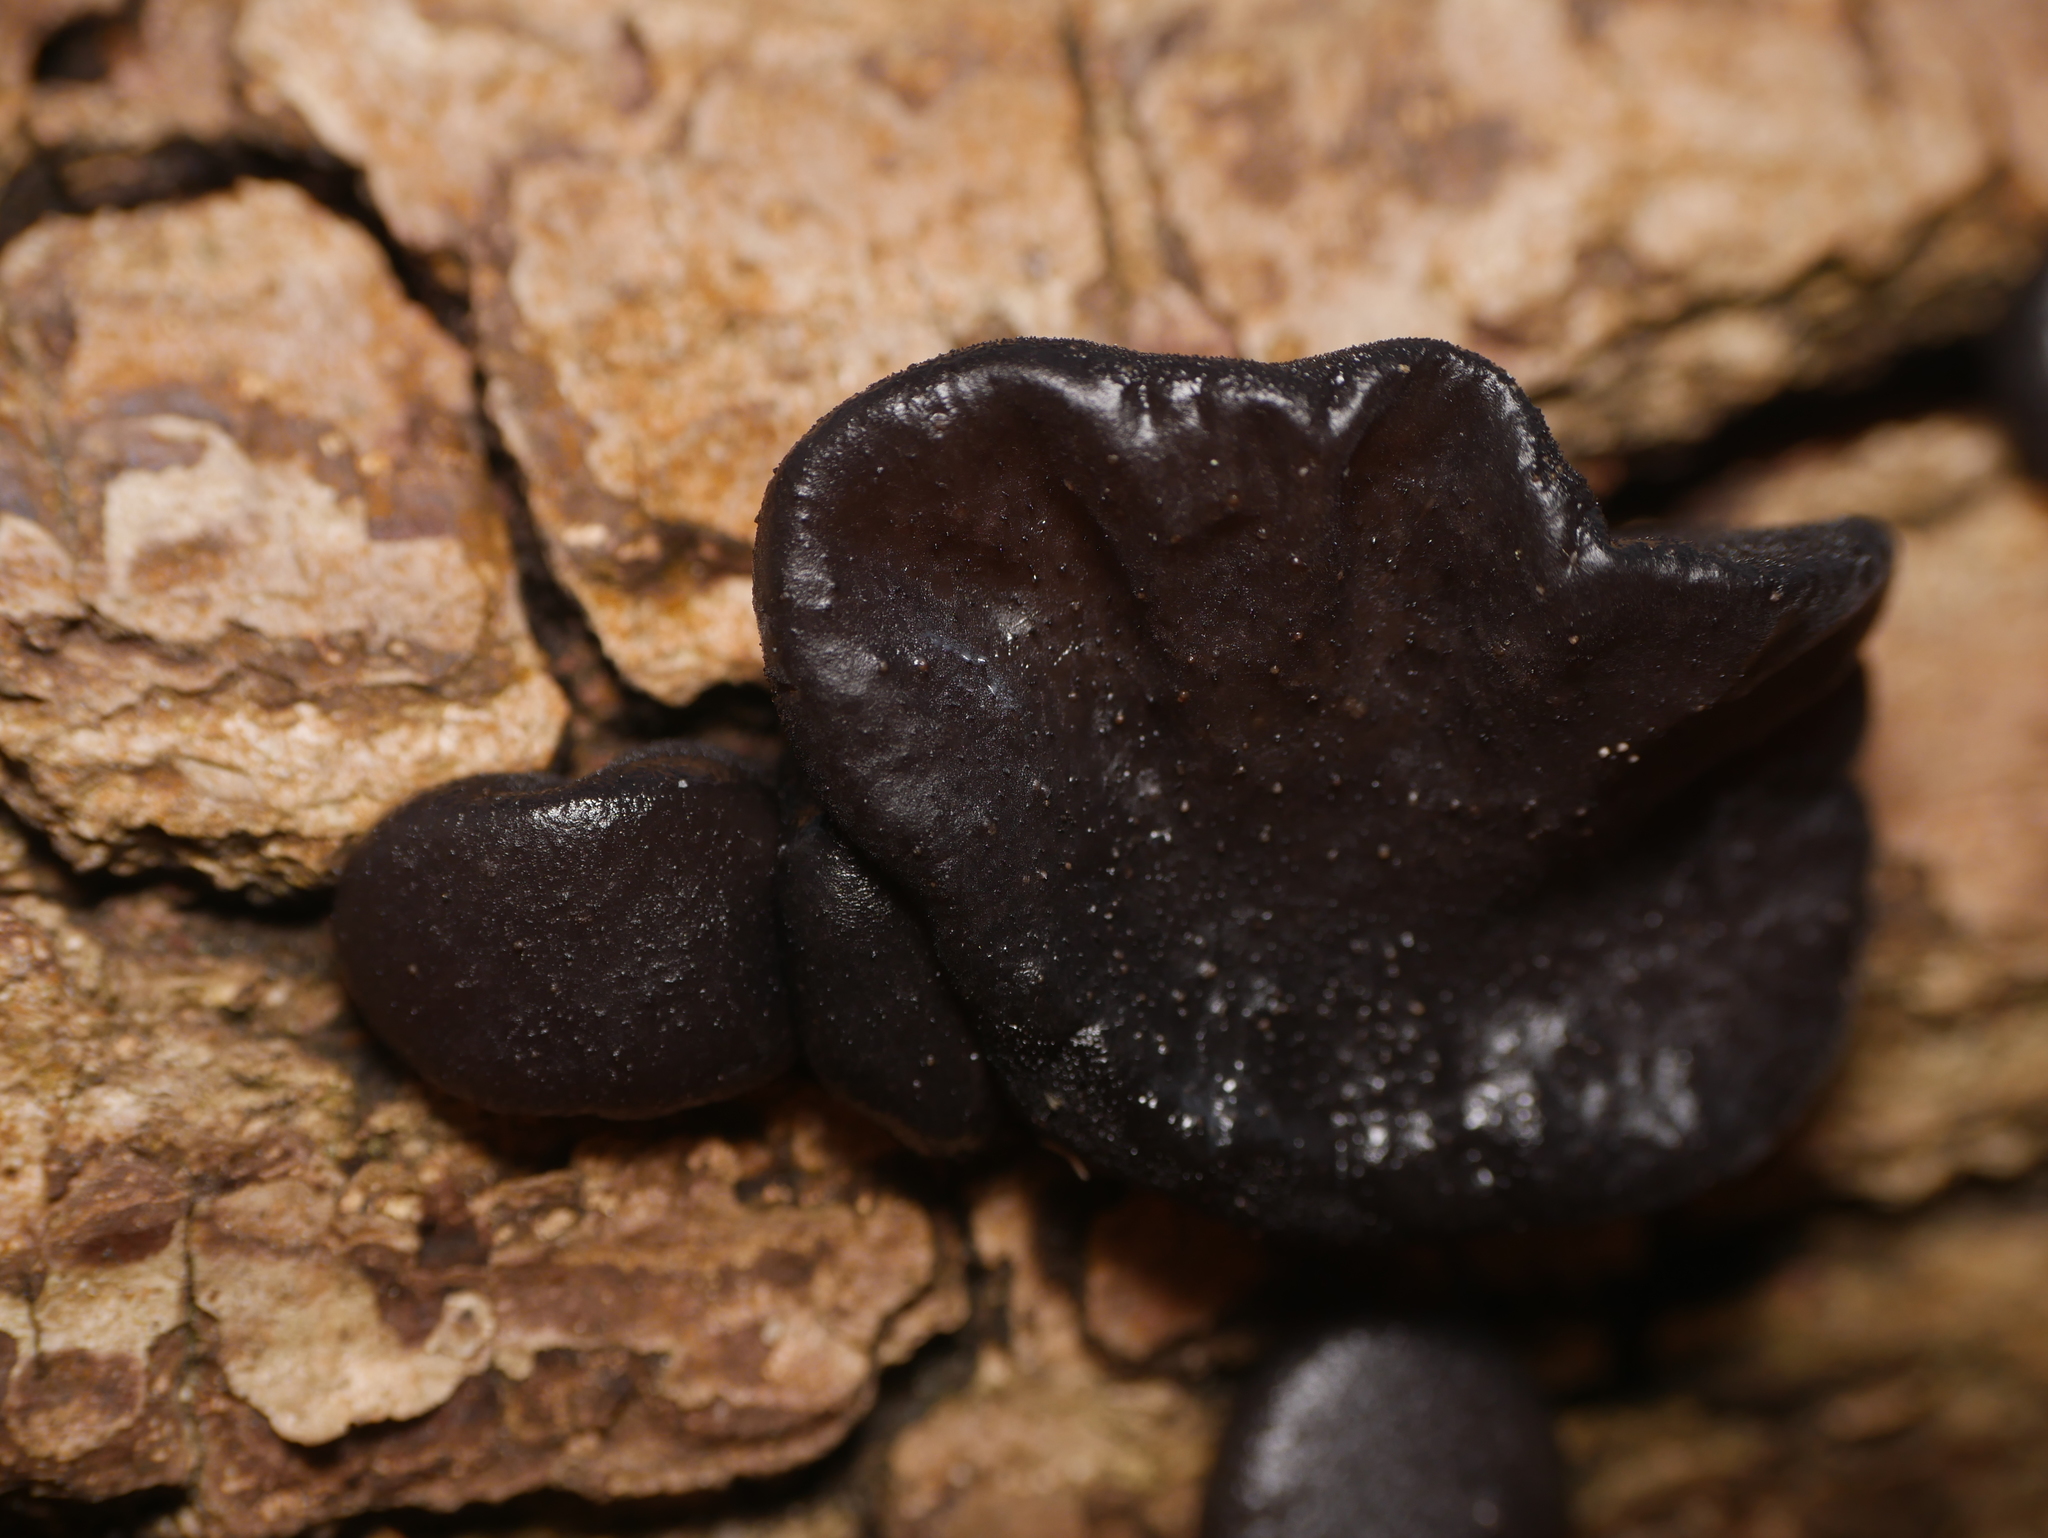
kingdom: Fungi
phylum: Basidiomycota
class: Agaricomycetes
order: Auriculariales
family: Auriculariaceae
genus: Exidia
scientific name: Exidia glandulosa
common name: Witches' butter
